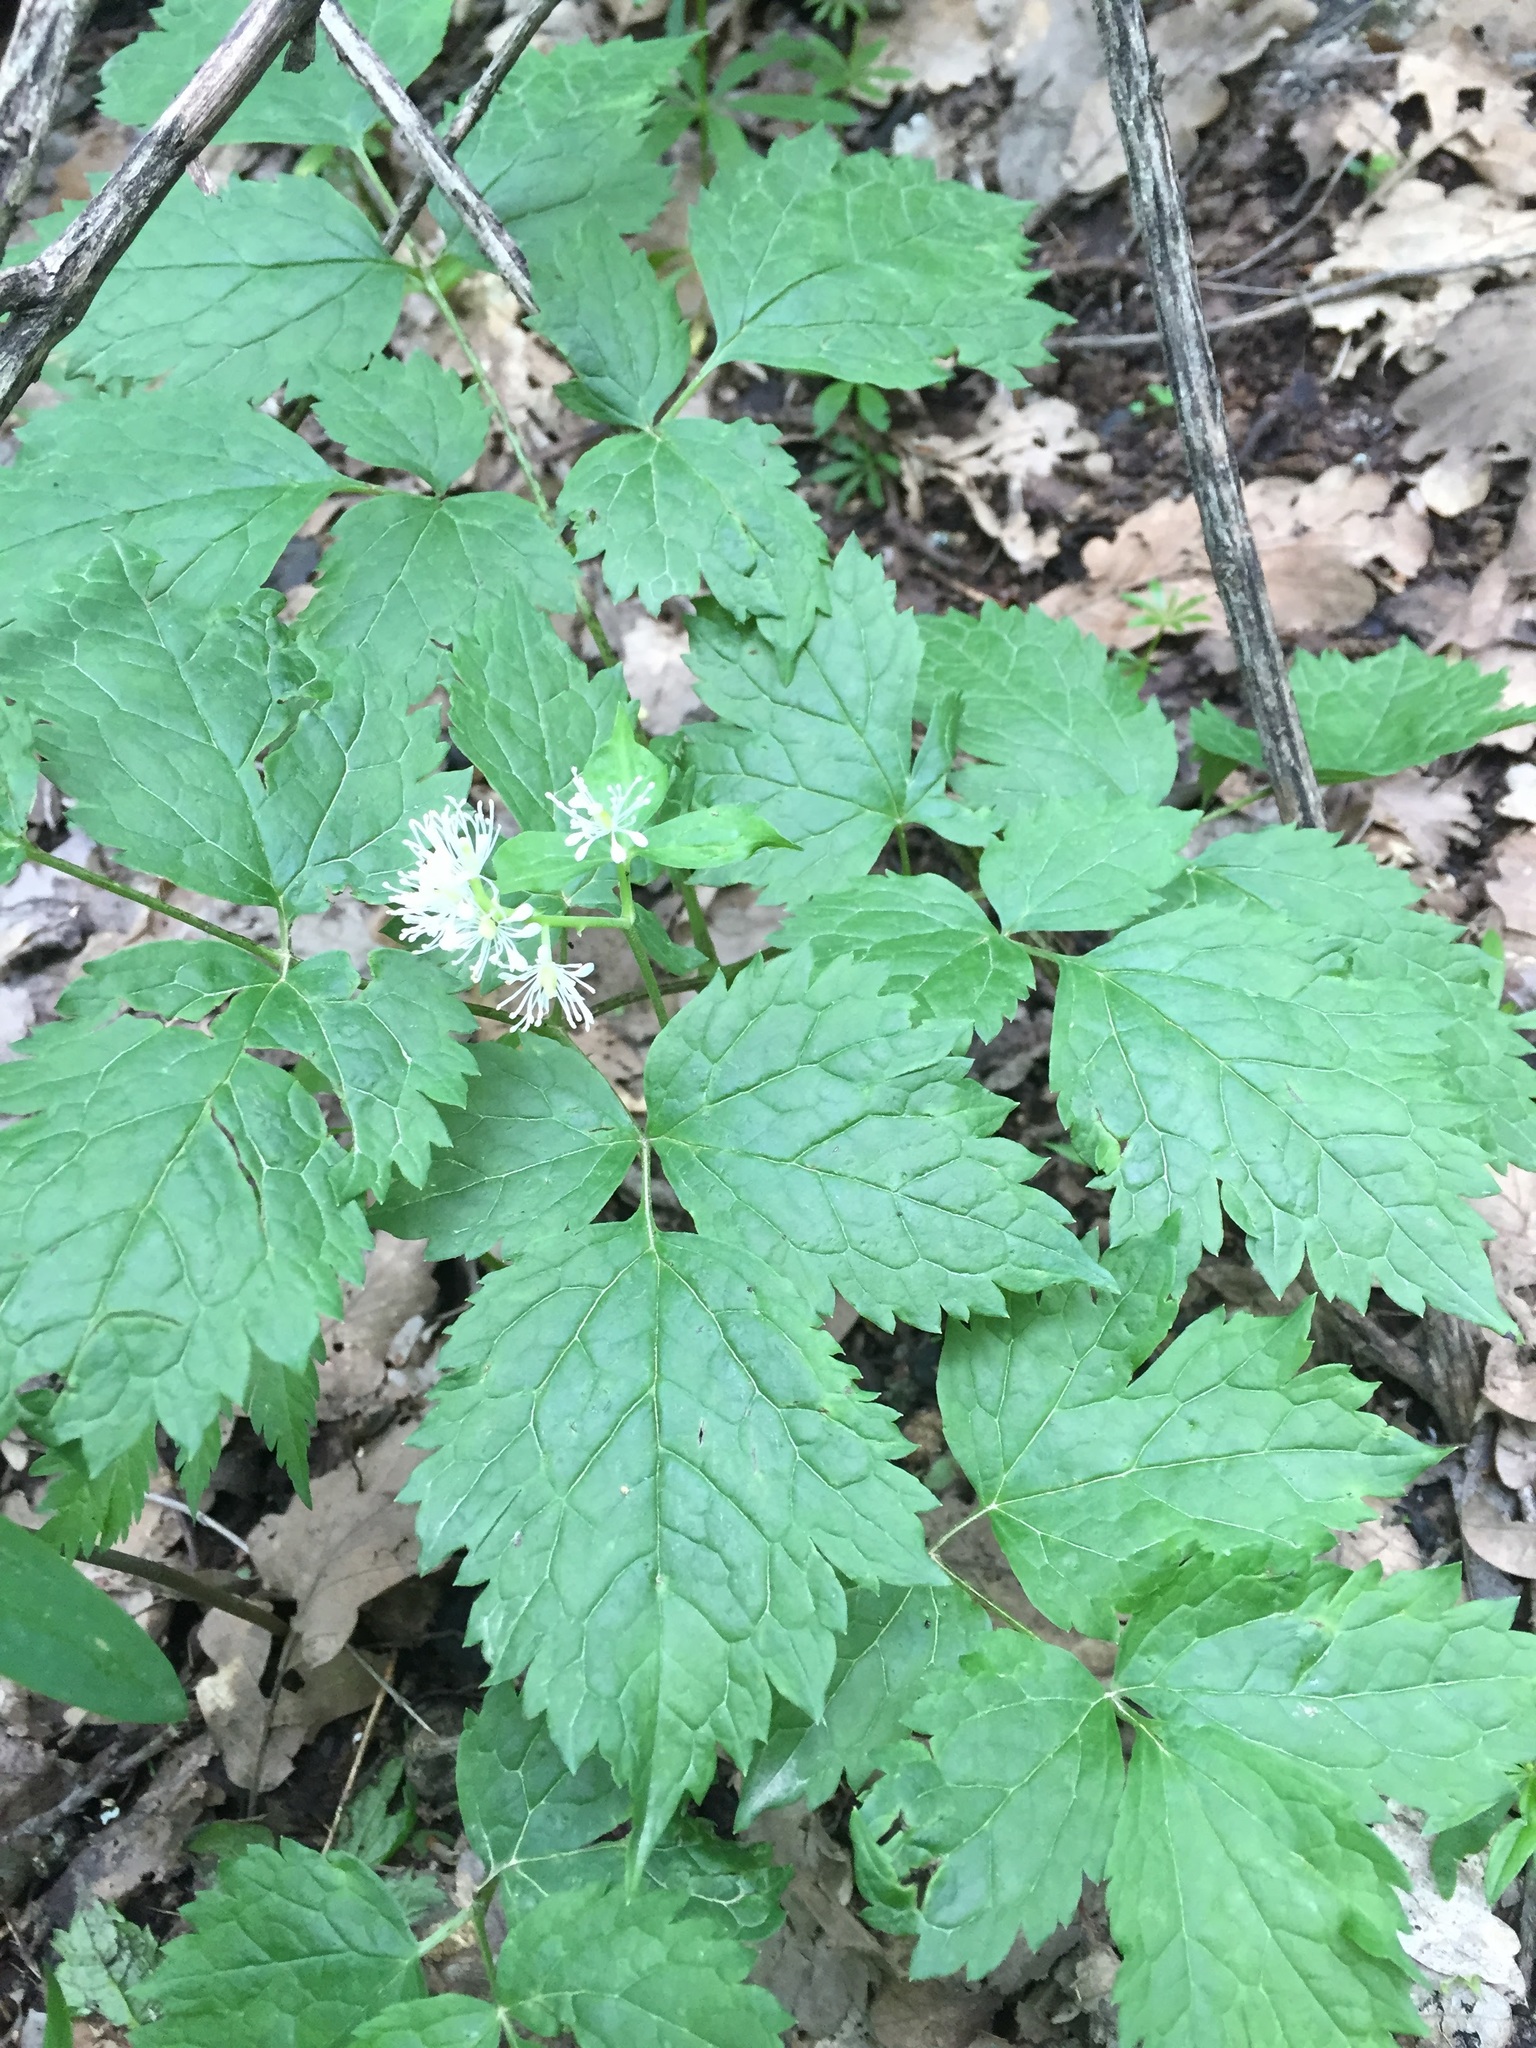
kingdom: Plantae
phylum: Tracheophyta
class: Magnoliopsida
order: Ranunculales
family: Ranunculaceae
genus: Actaea
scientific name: Actaea spicata
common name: Baneberry
